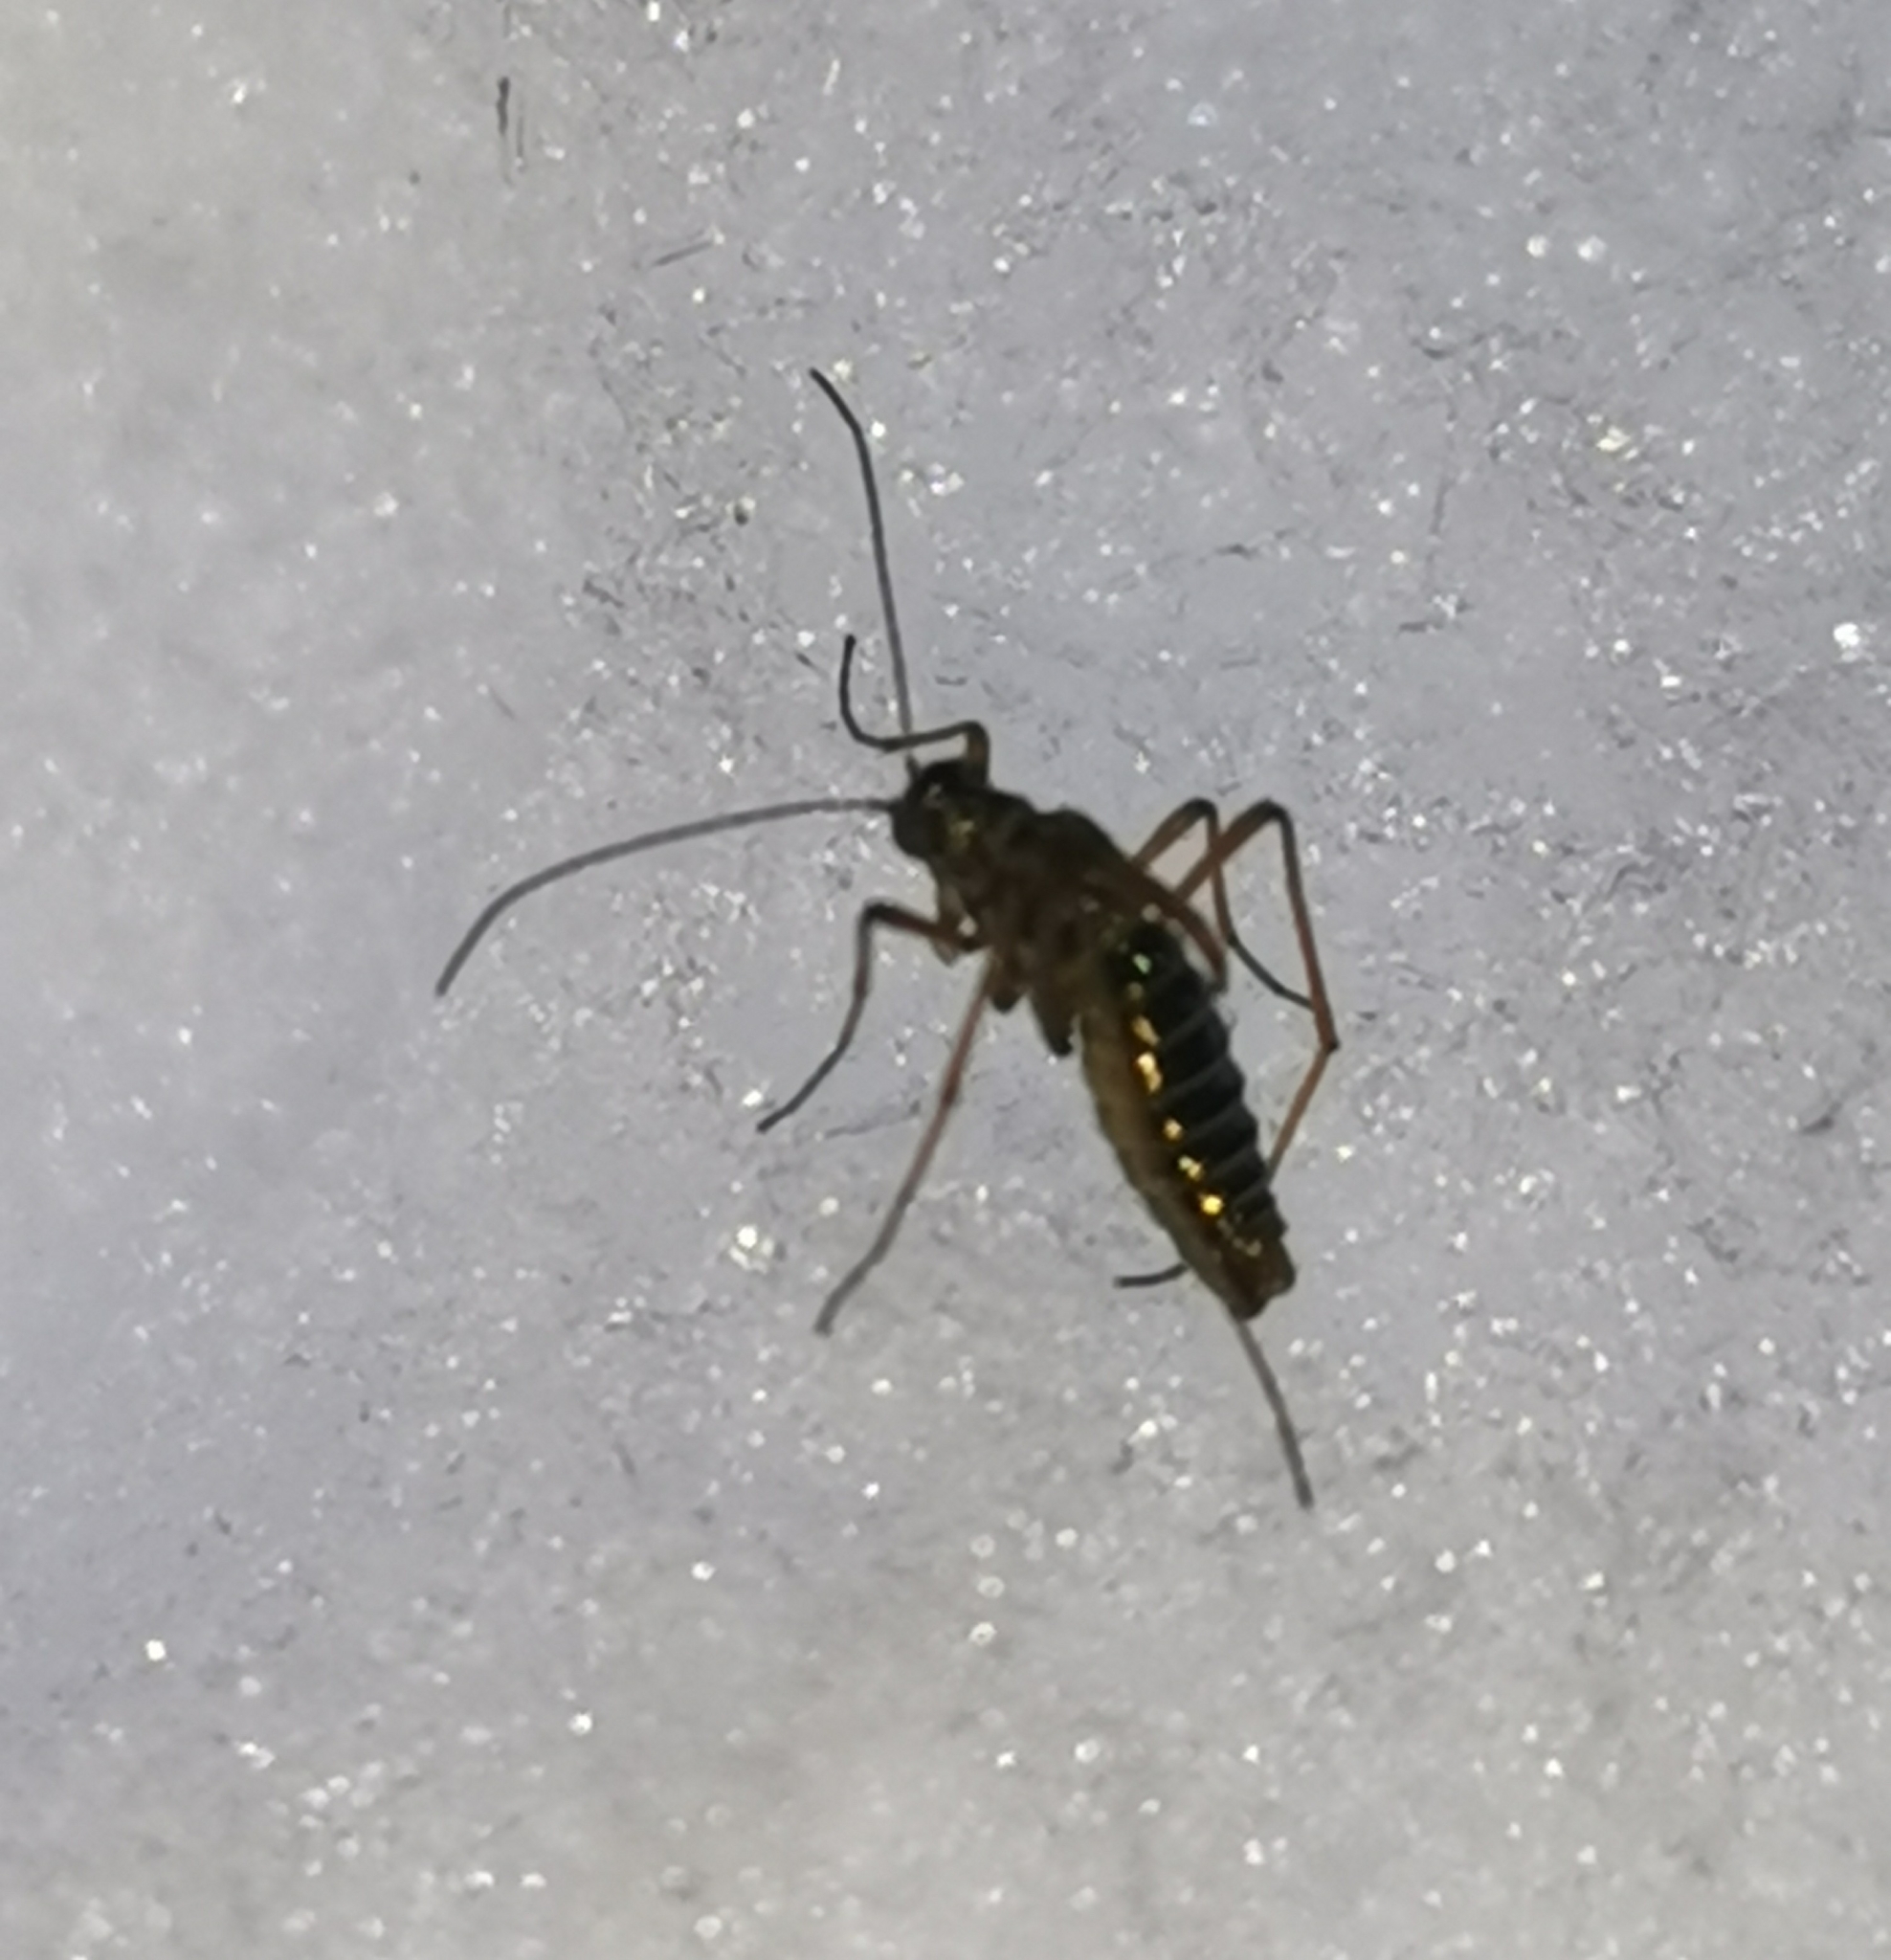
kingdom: Animalia
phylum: Arthropoda
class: Insecta
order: Mecoptera
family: Boreidae
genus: Boreus
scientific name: Boreus westwoodi
